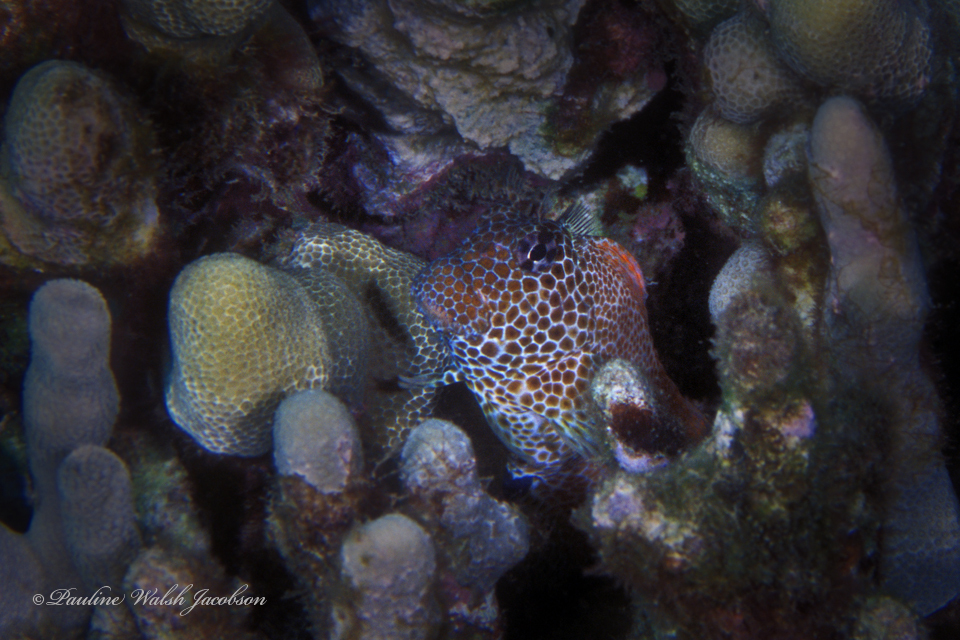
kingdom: Animalia
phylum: Chordata
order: Perciformes
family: Blenniidae
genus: Exallias
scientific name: Exallias brevis
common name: Leopard blenny
